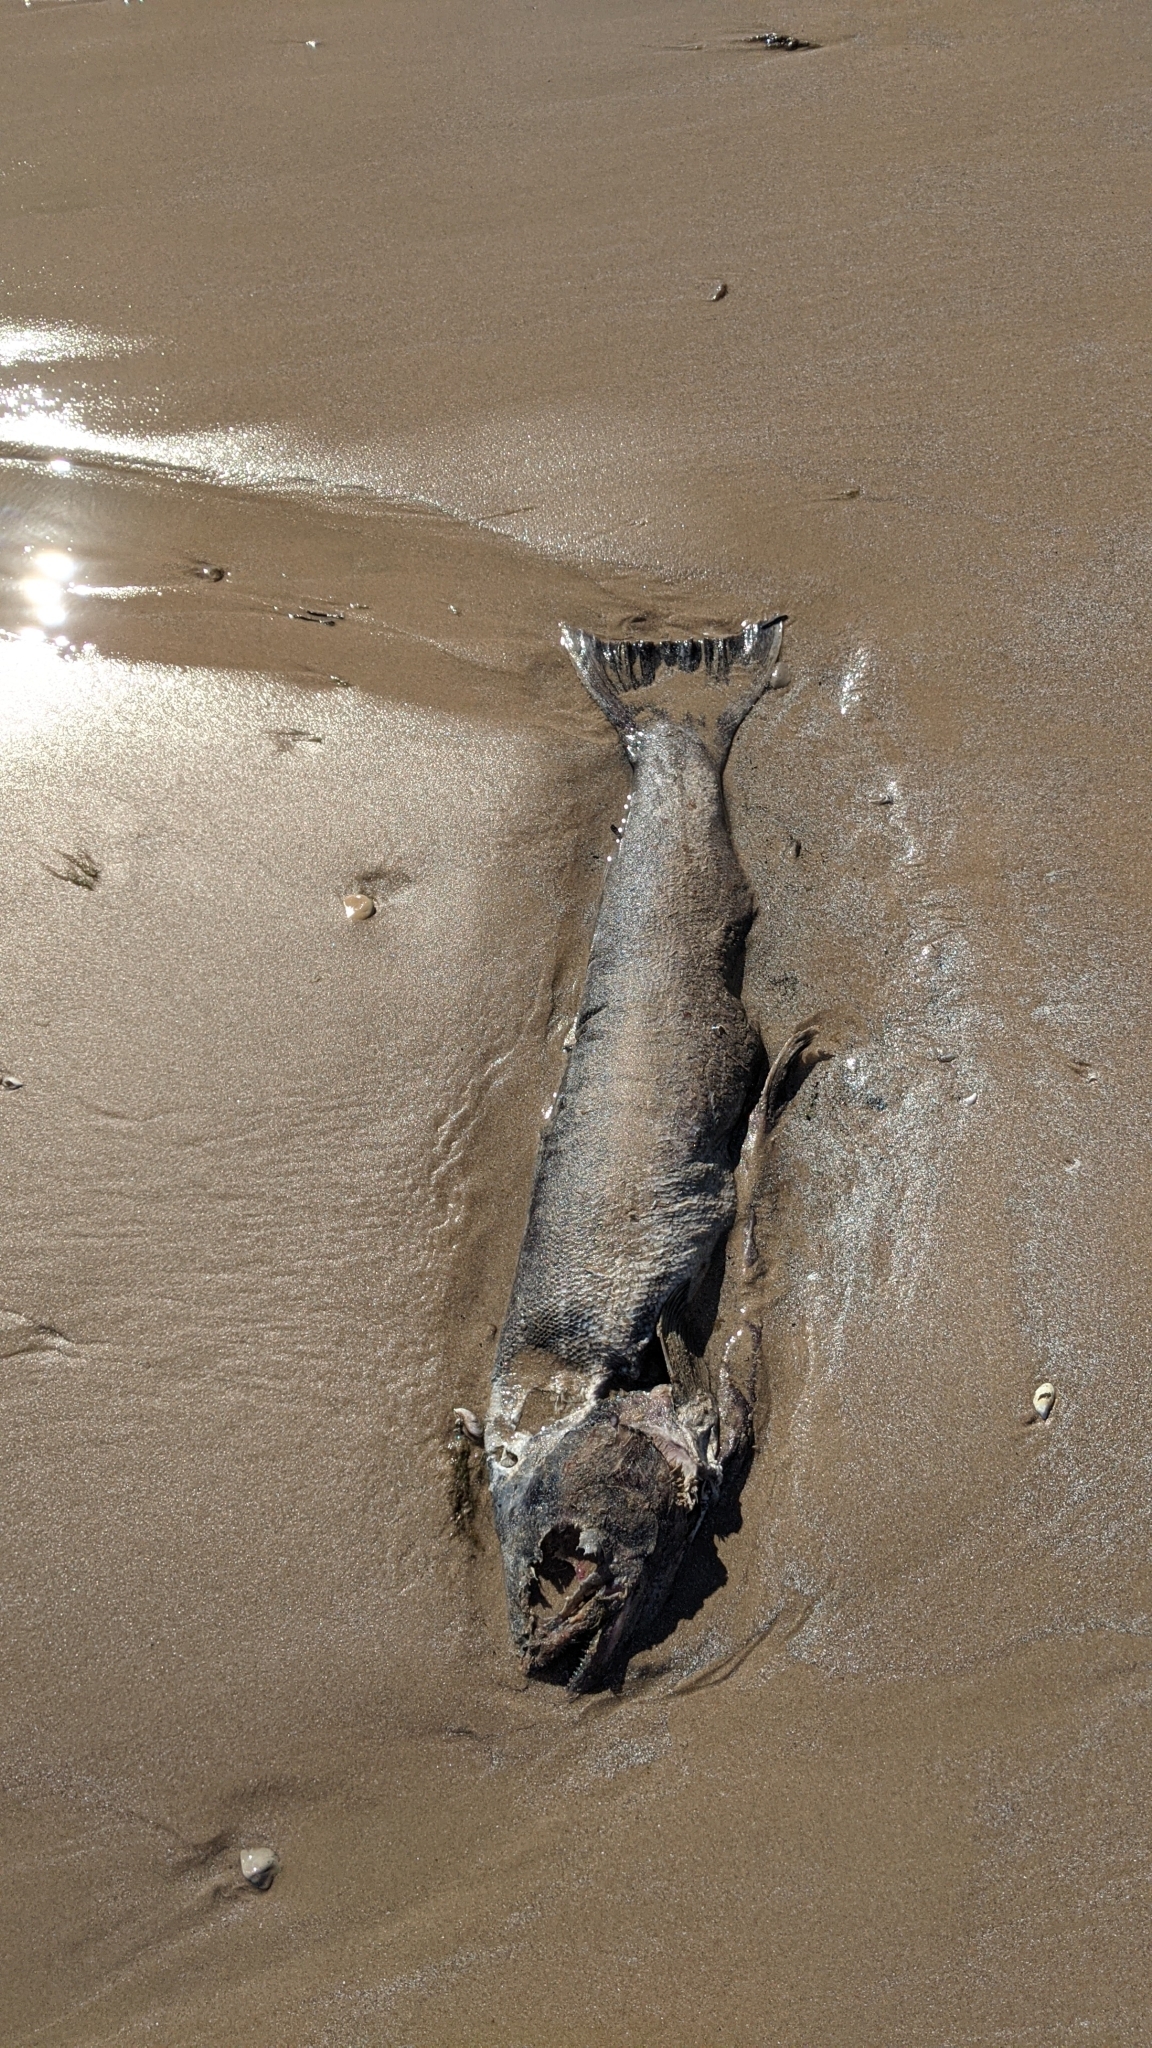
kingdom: Animalia
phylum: Chordata
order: Salmoniformes
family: Salmonidae
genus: Oncorhynchus
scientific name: Oncorhynchus tshawytscha
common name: Chinook salmon
